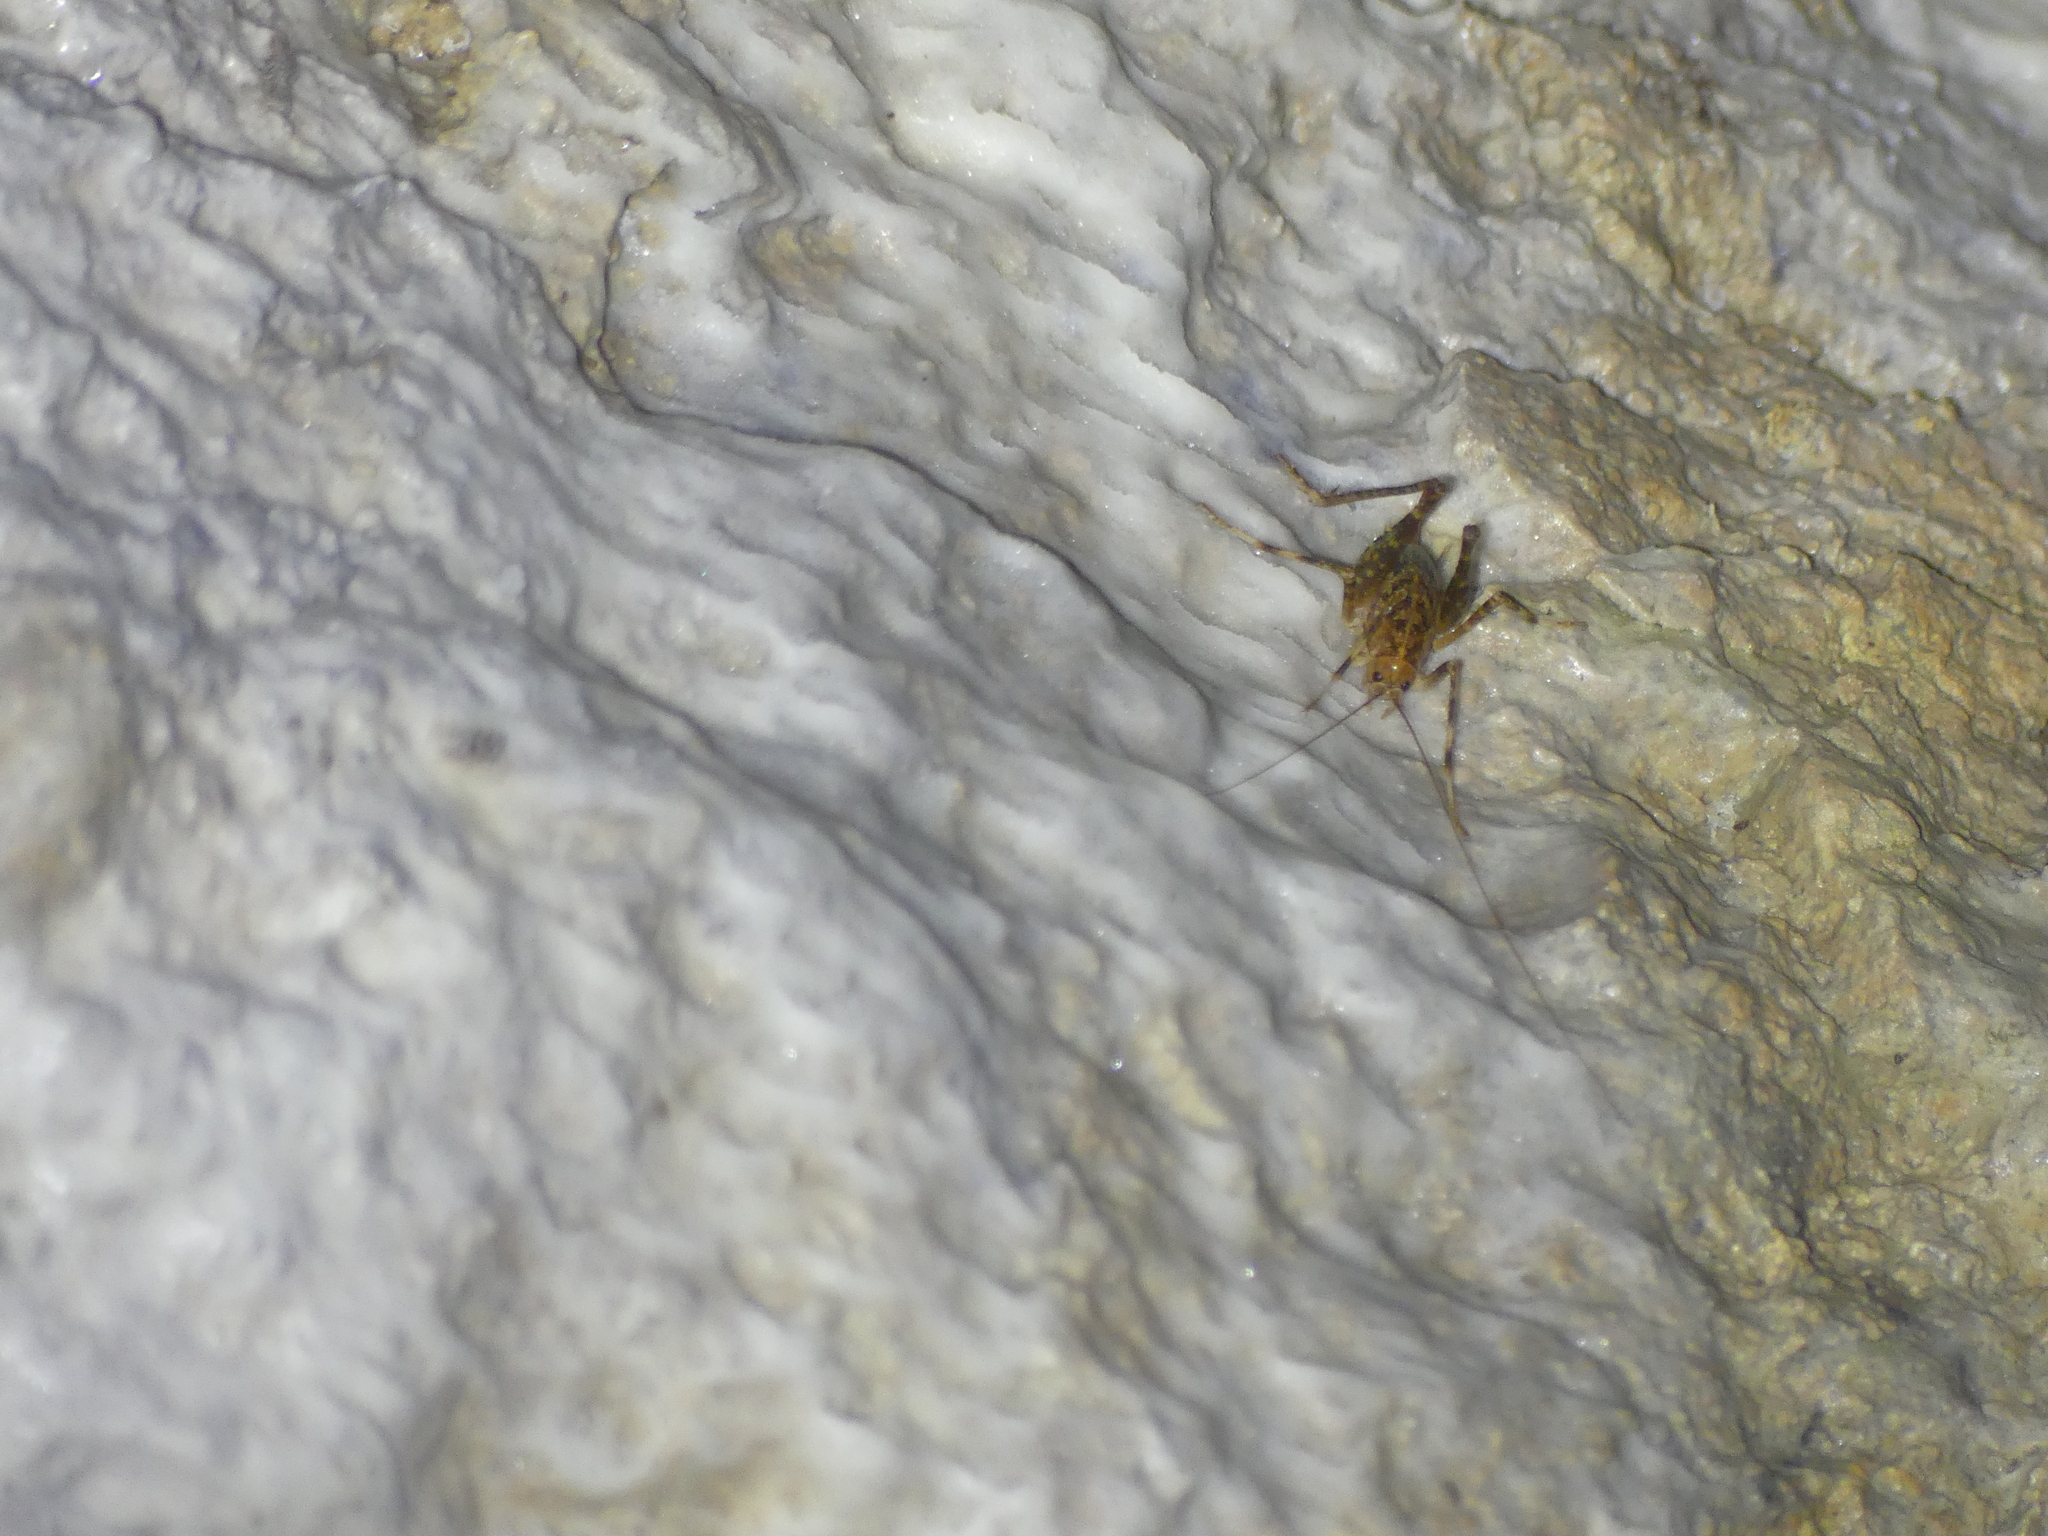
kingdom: Animalia
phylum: Arthropoda
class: Insecta
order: Orthoptera
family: Rhaphidophoridae
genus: Troglophilus
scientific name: Troglophilus neglectus
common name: Neglected cave-cricket
